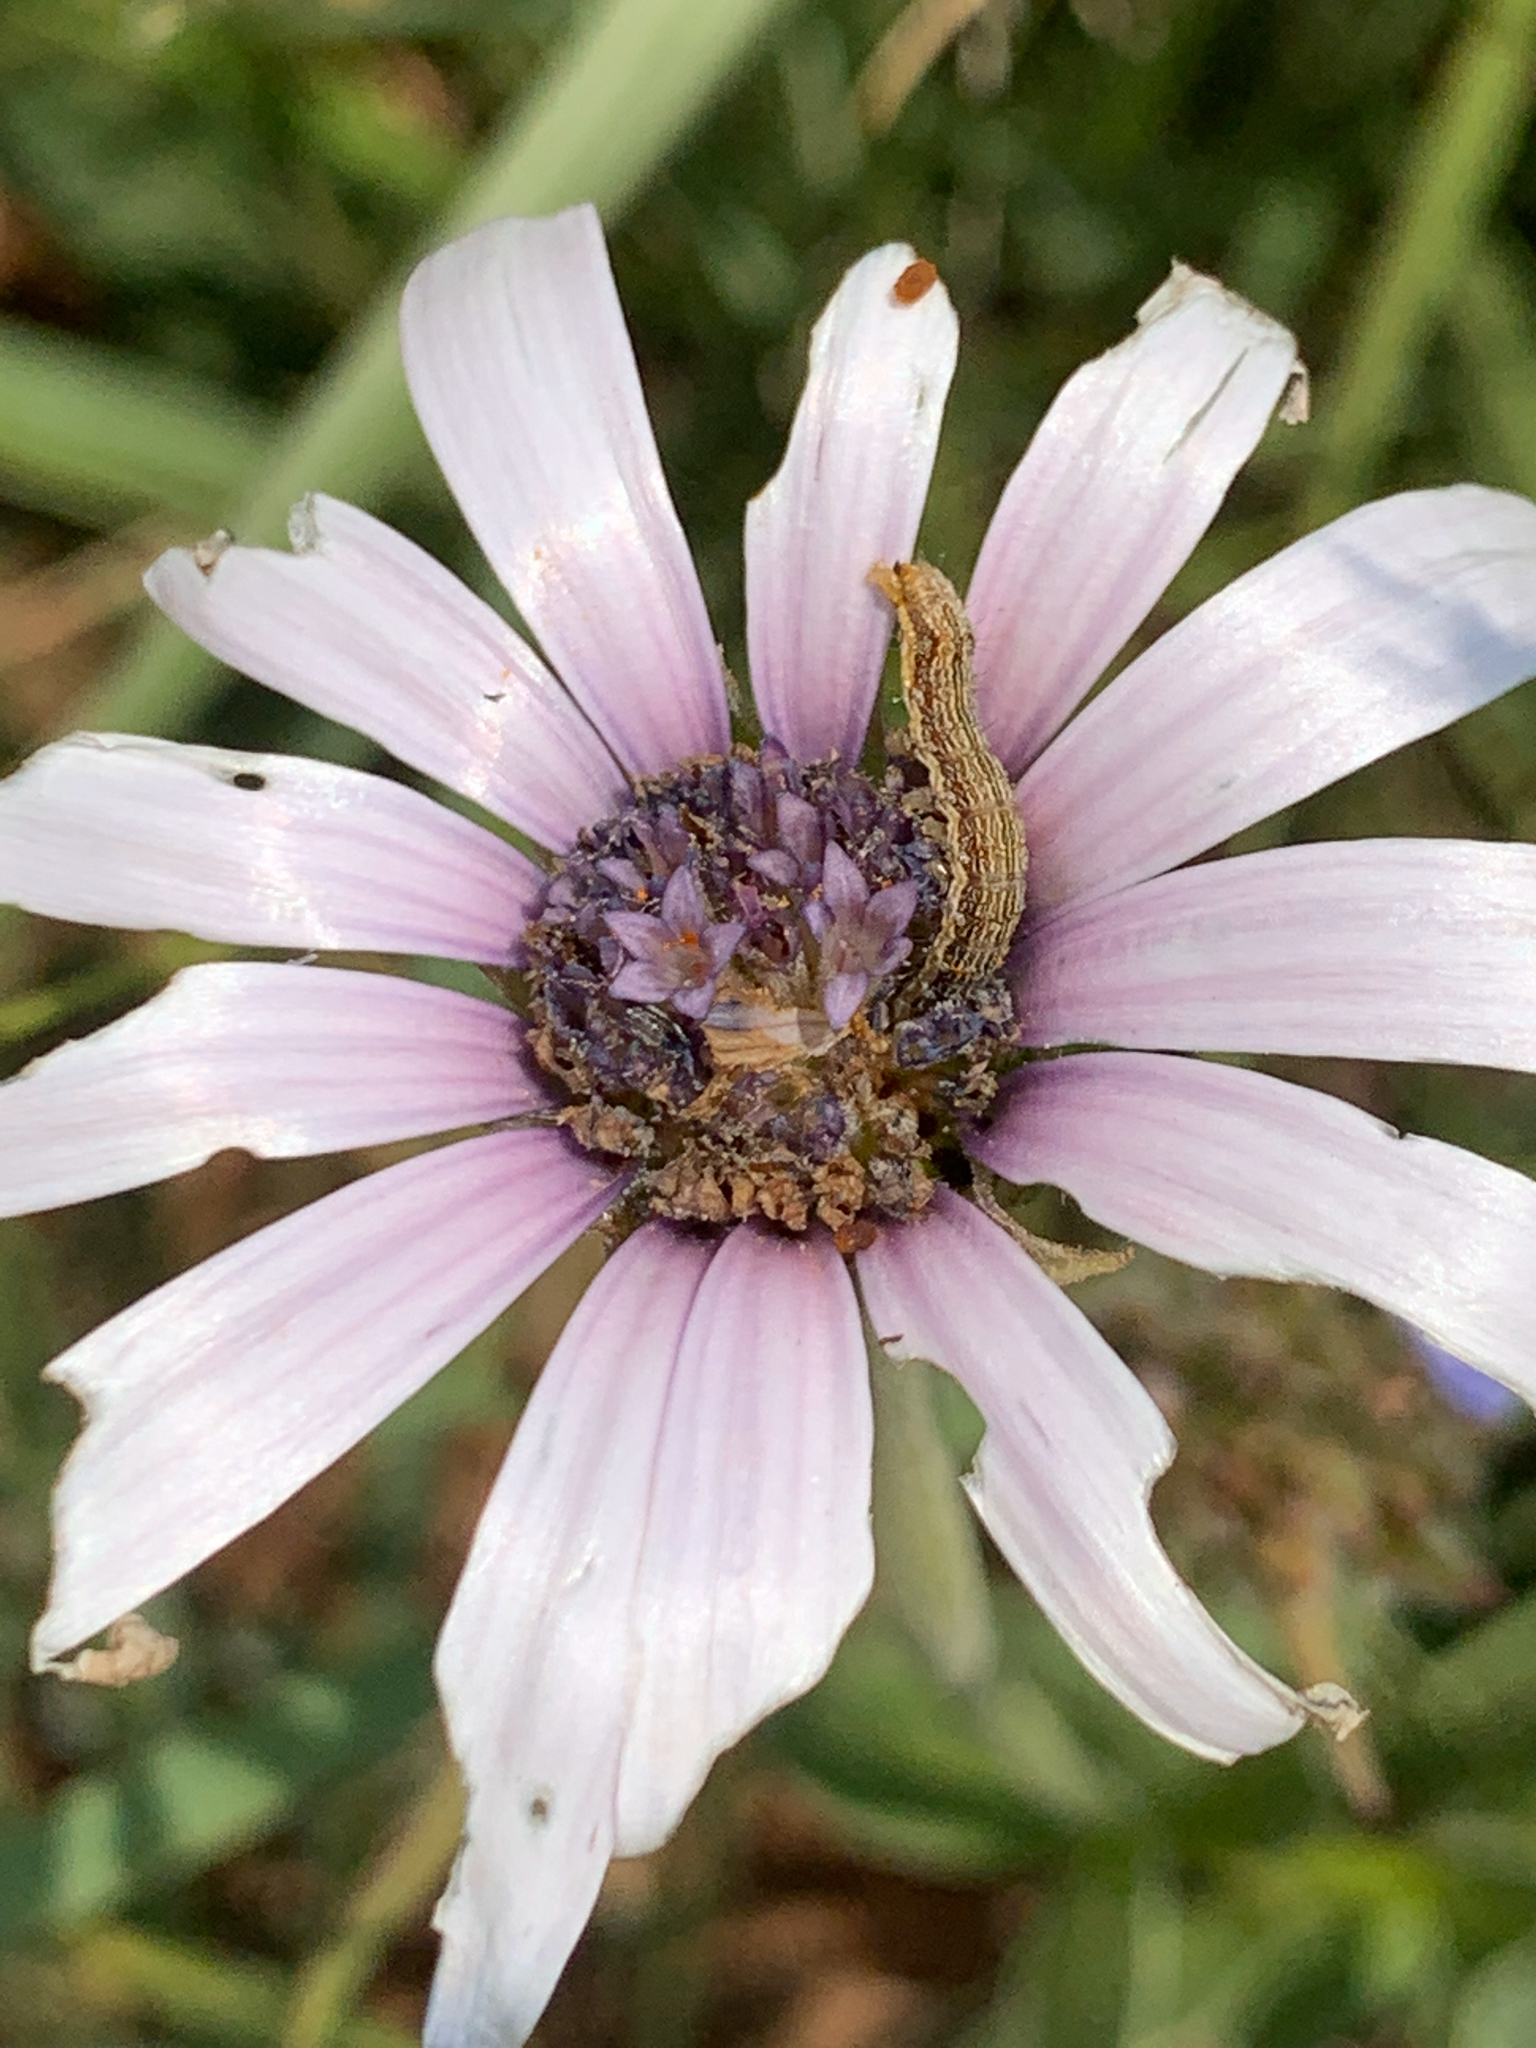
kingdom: Plantae
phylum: Tracheophyta
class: Magnoliopsida
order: Asterales
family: Asteraceae
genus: Dimorphotheca
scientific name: Dimorphotheca spectabilis
